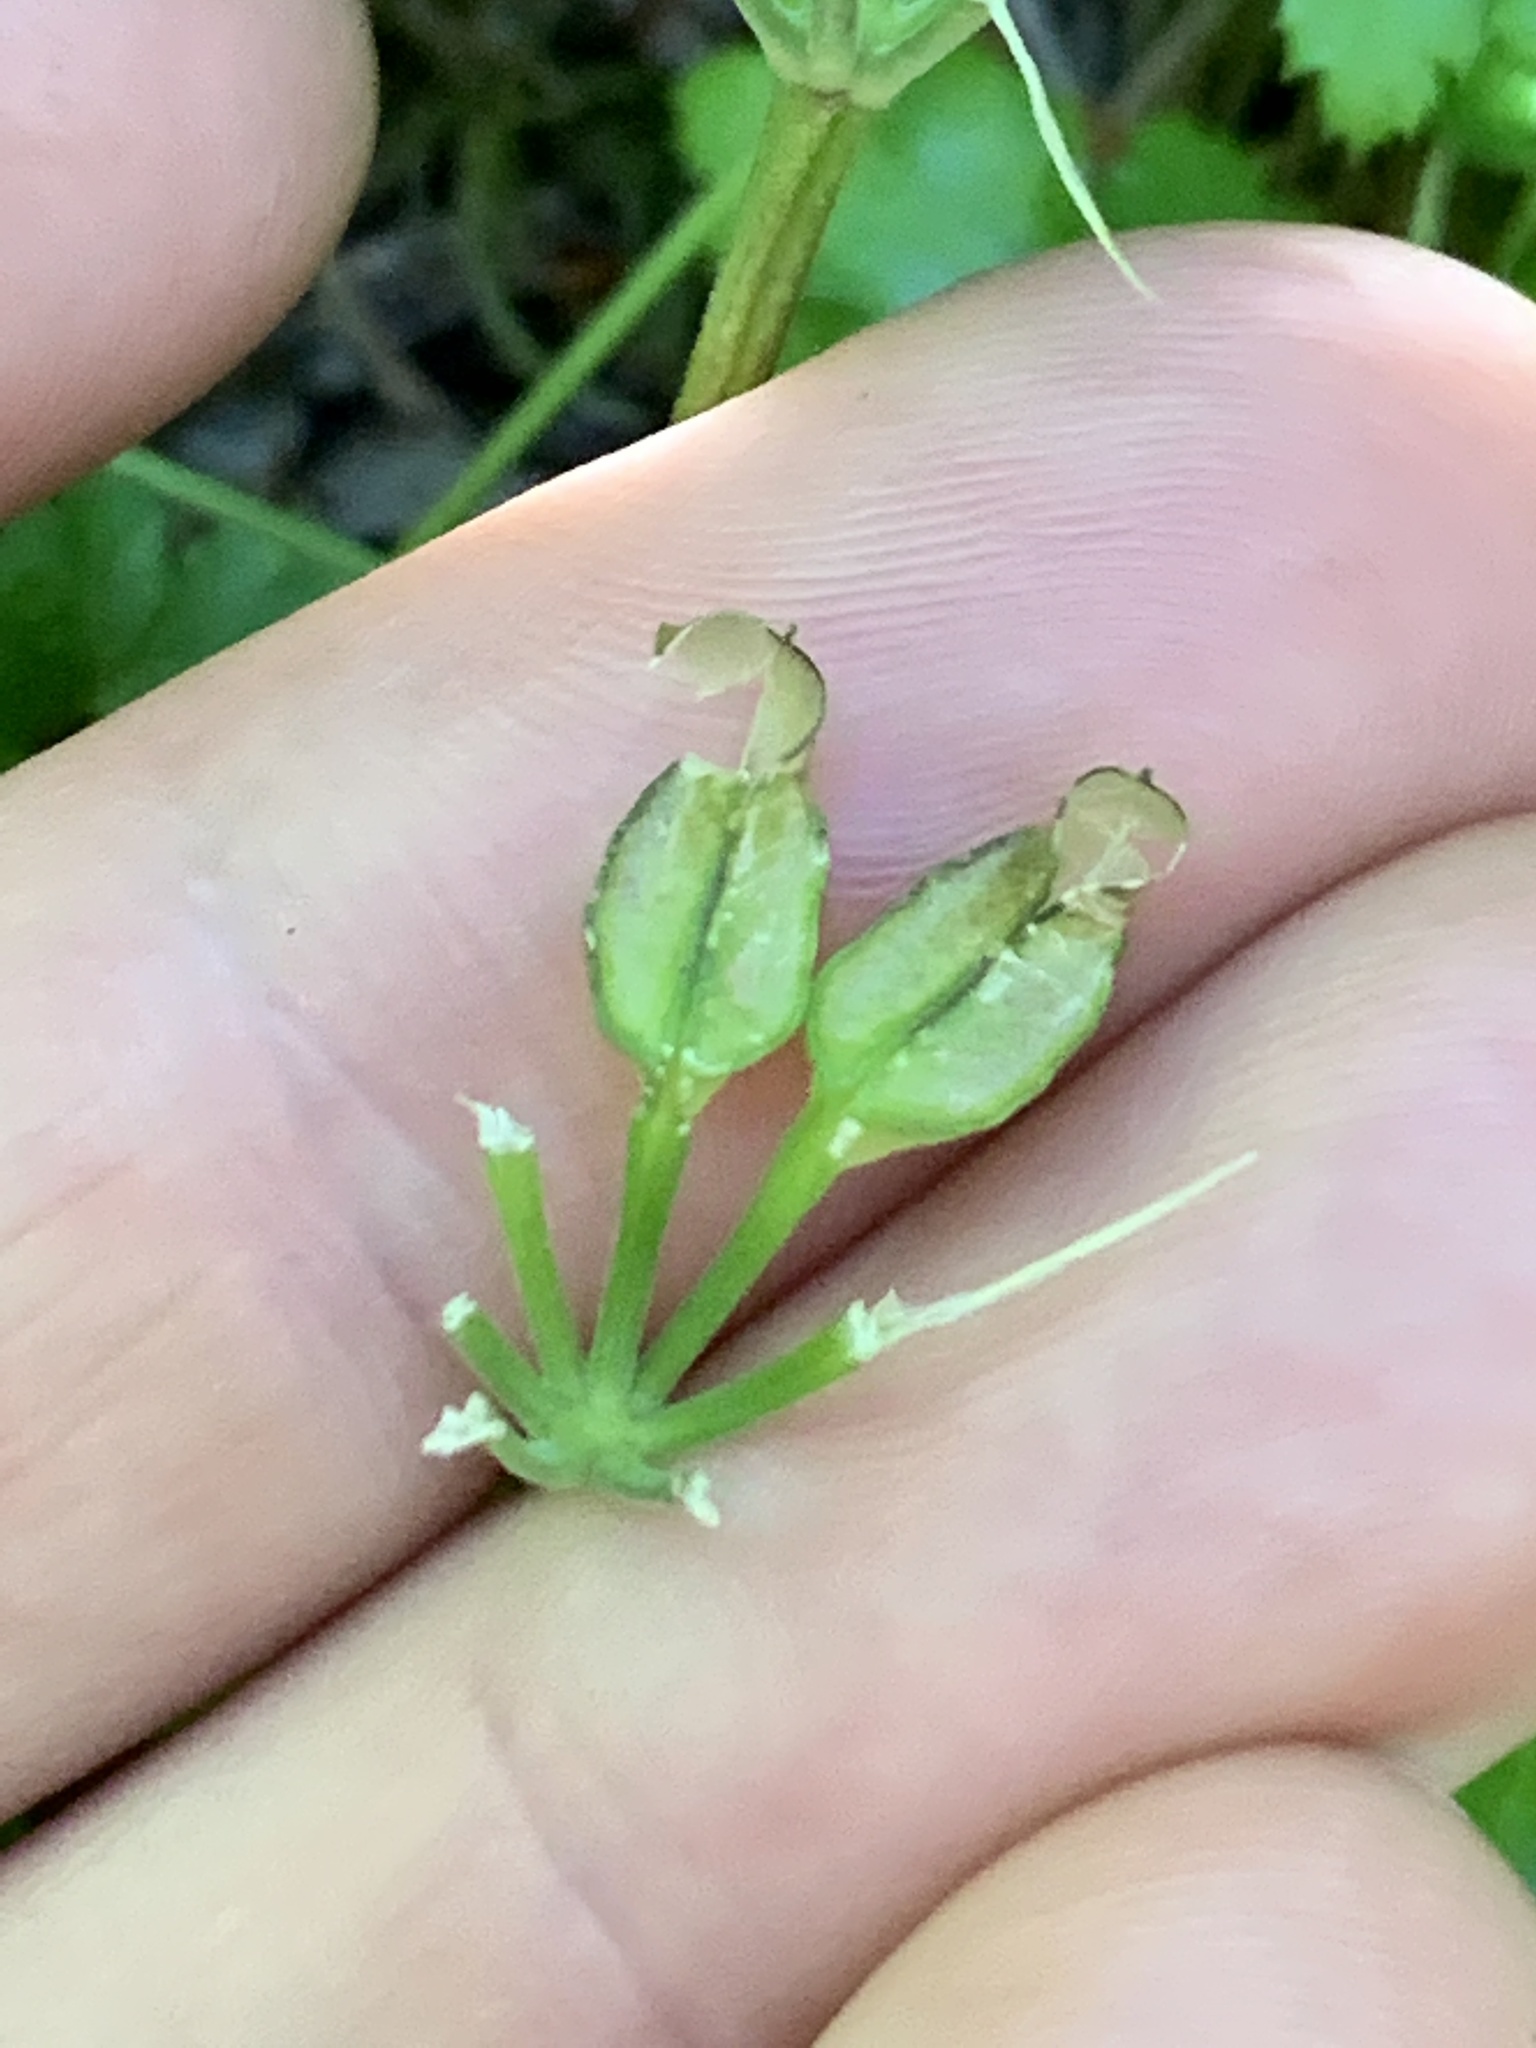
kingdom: Plantae
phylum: Tracheophyta
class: Magnoliopsida
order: Ranunculales
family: Ranunculaceae
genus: Coptis
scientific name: Coptis laciniata
